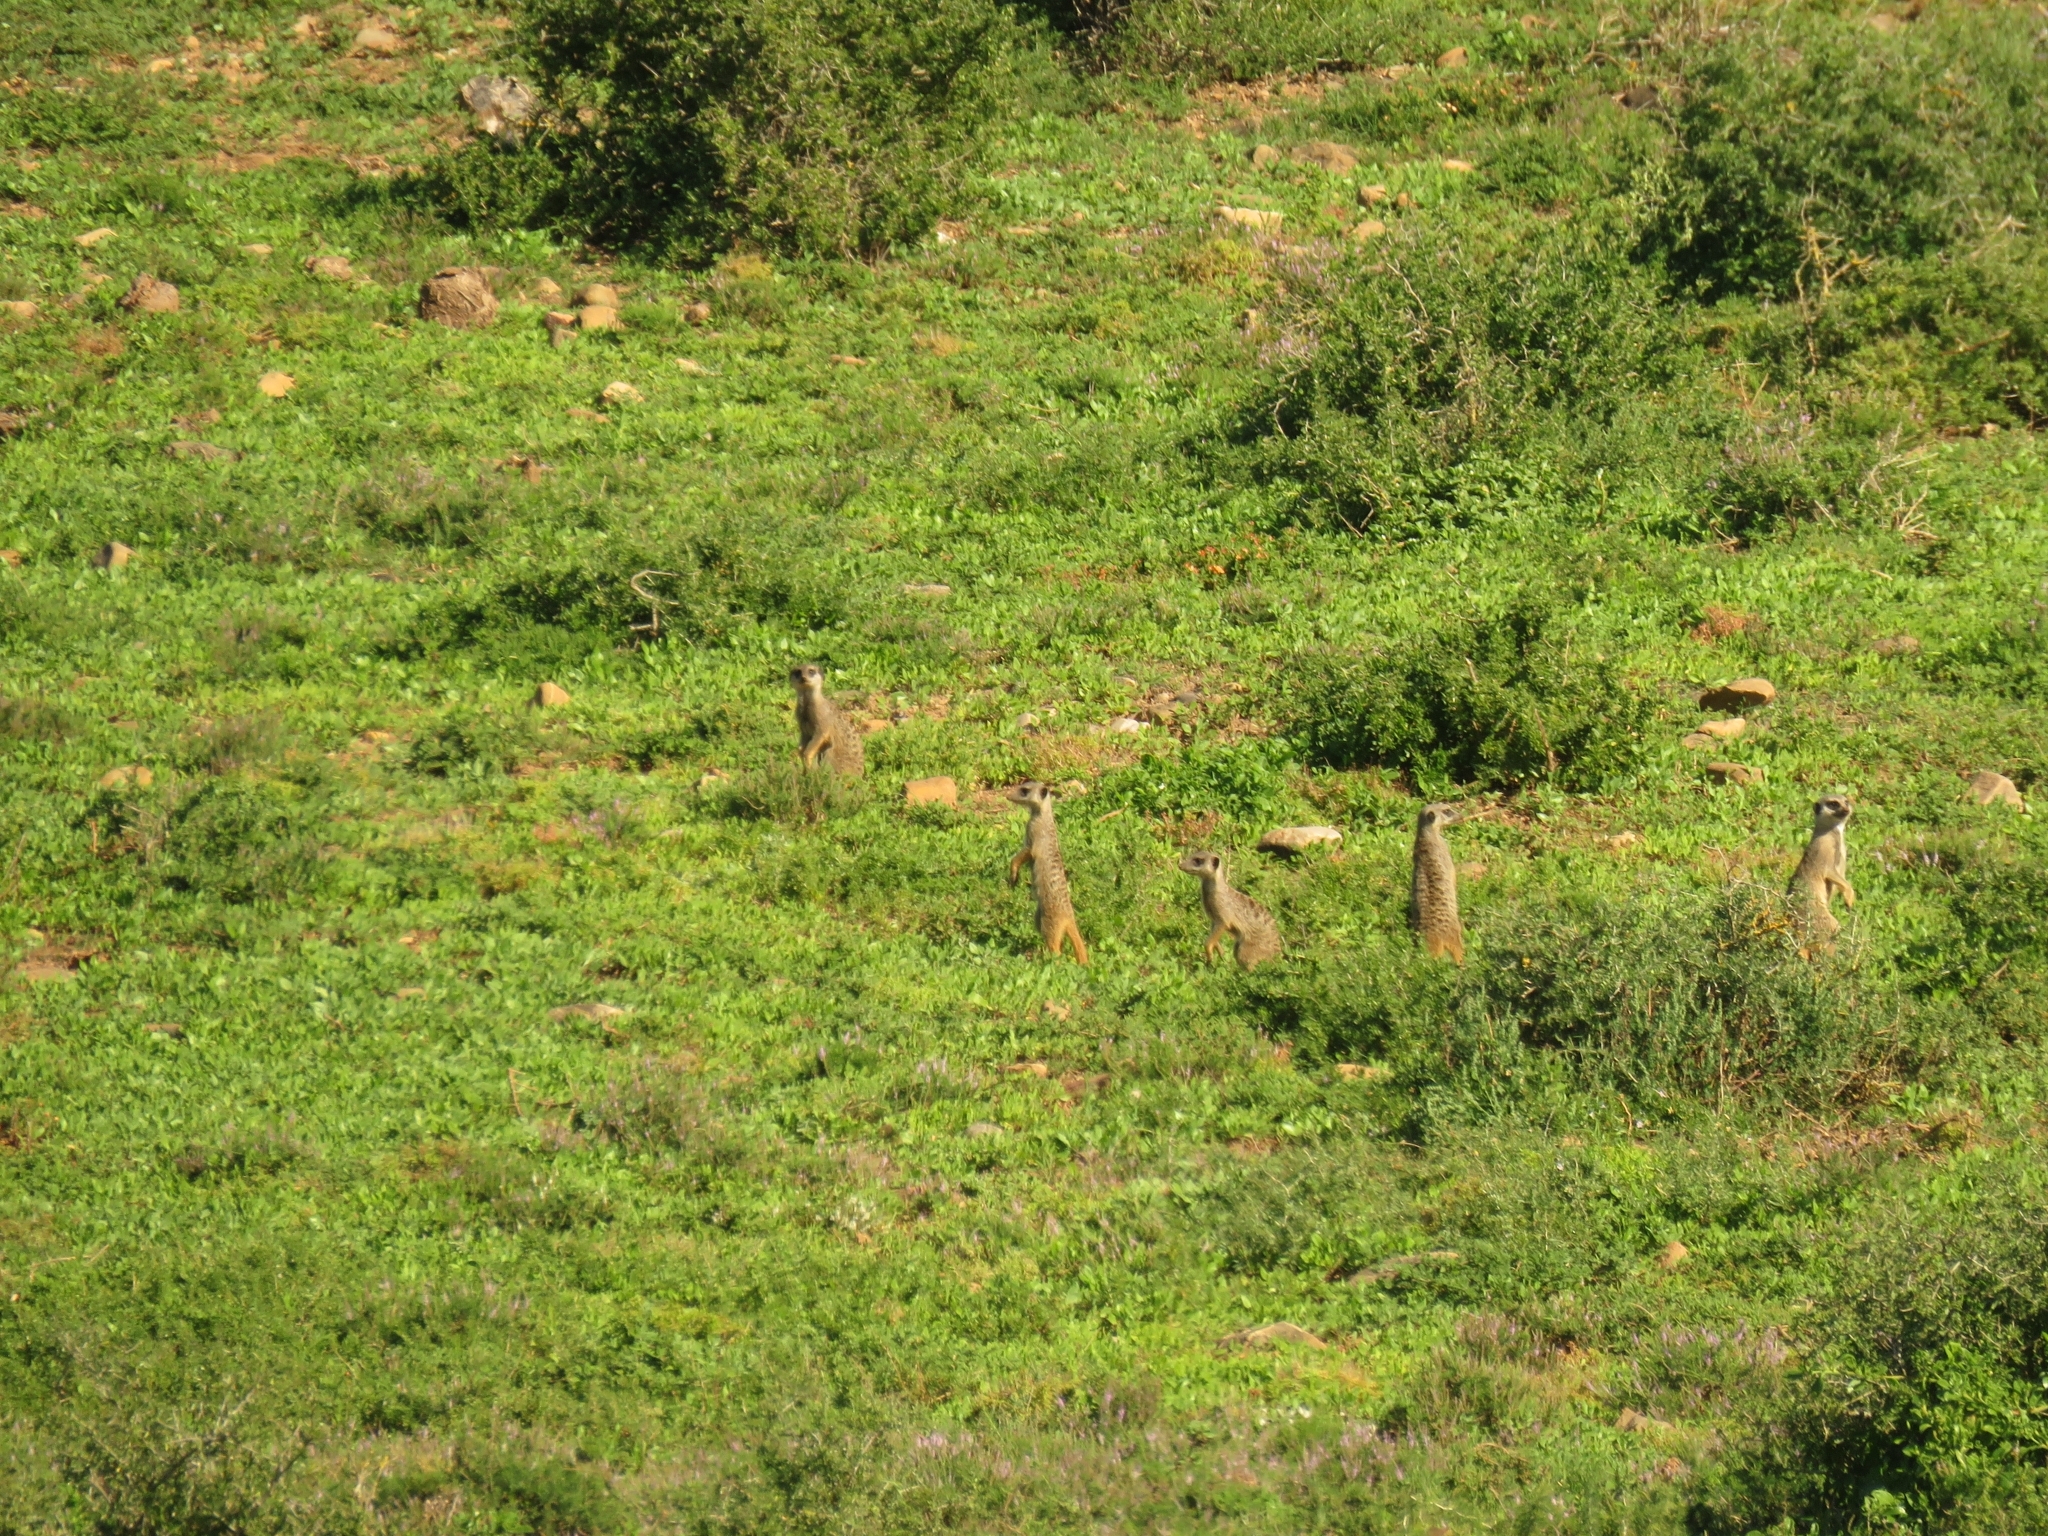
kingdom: Animalia
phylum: Chordata
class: Mammalia
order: Carnivora
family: Herpestidae
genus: Suricata
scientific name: Suricata suricatta
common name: Meerkat
